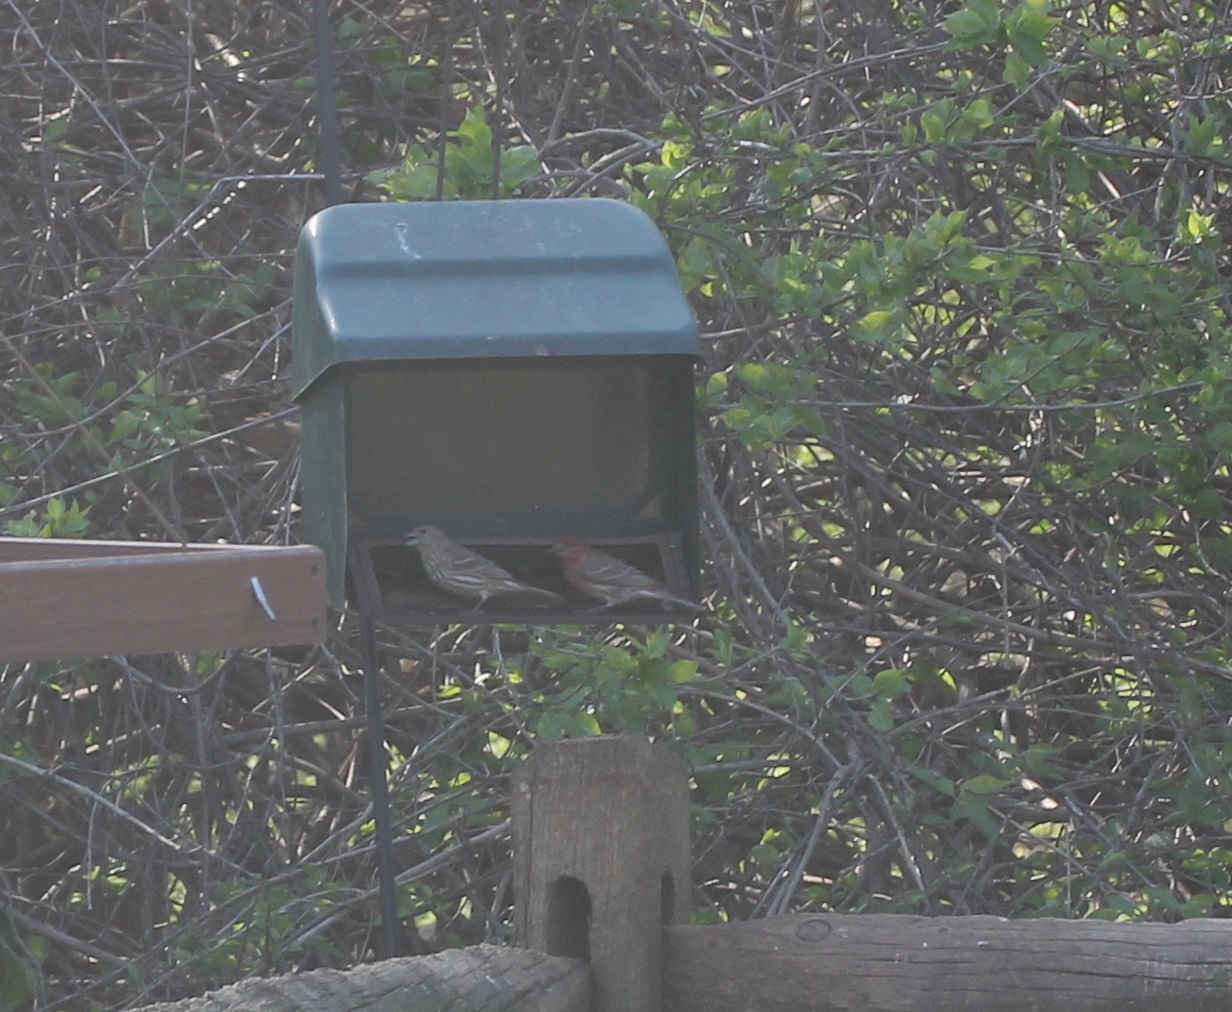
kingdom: Animalia
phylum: Chordata
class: Aves
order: Passeriformes
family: Fringillidae
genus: Haemorhous
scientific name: Haemorhous mexicanus
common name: House finch
